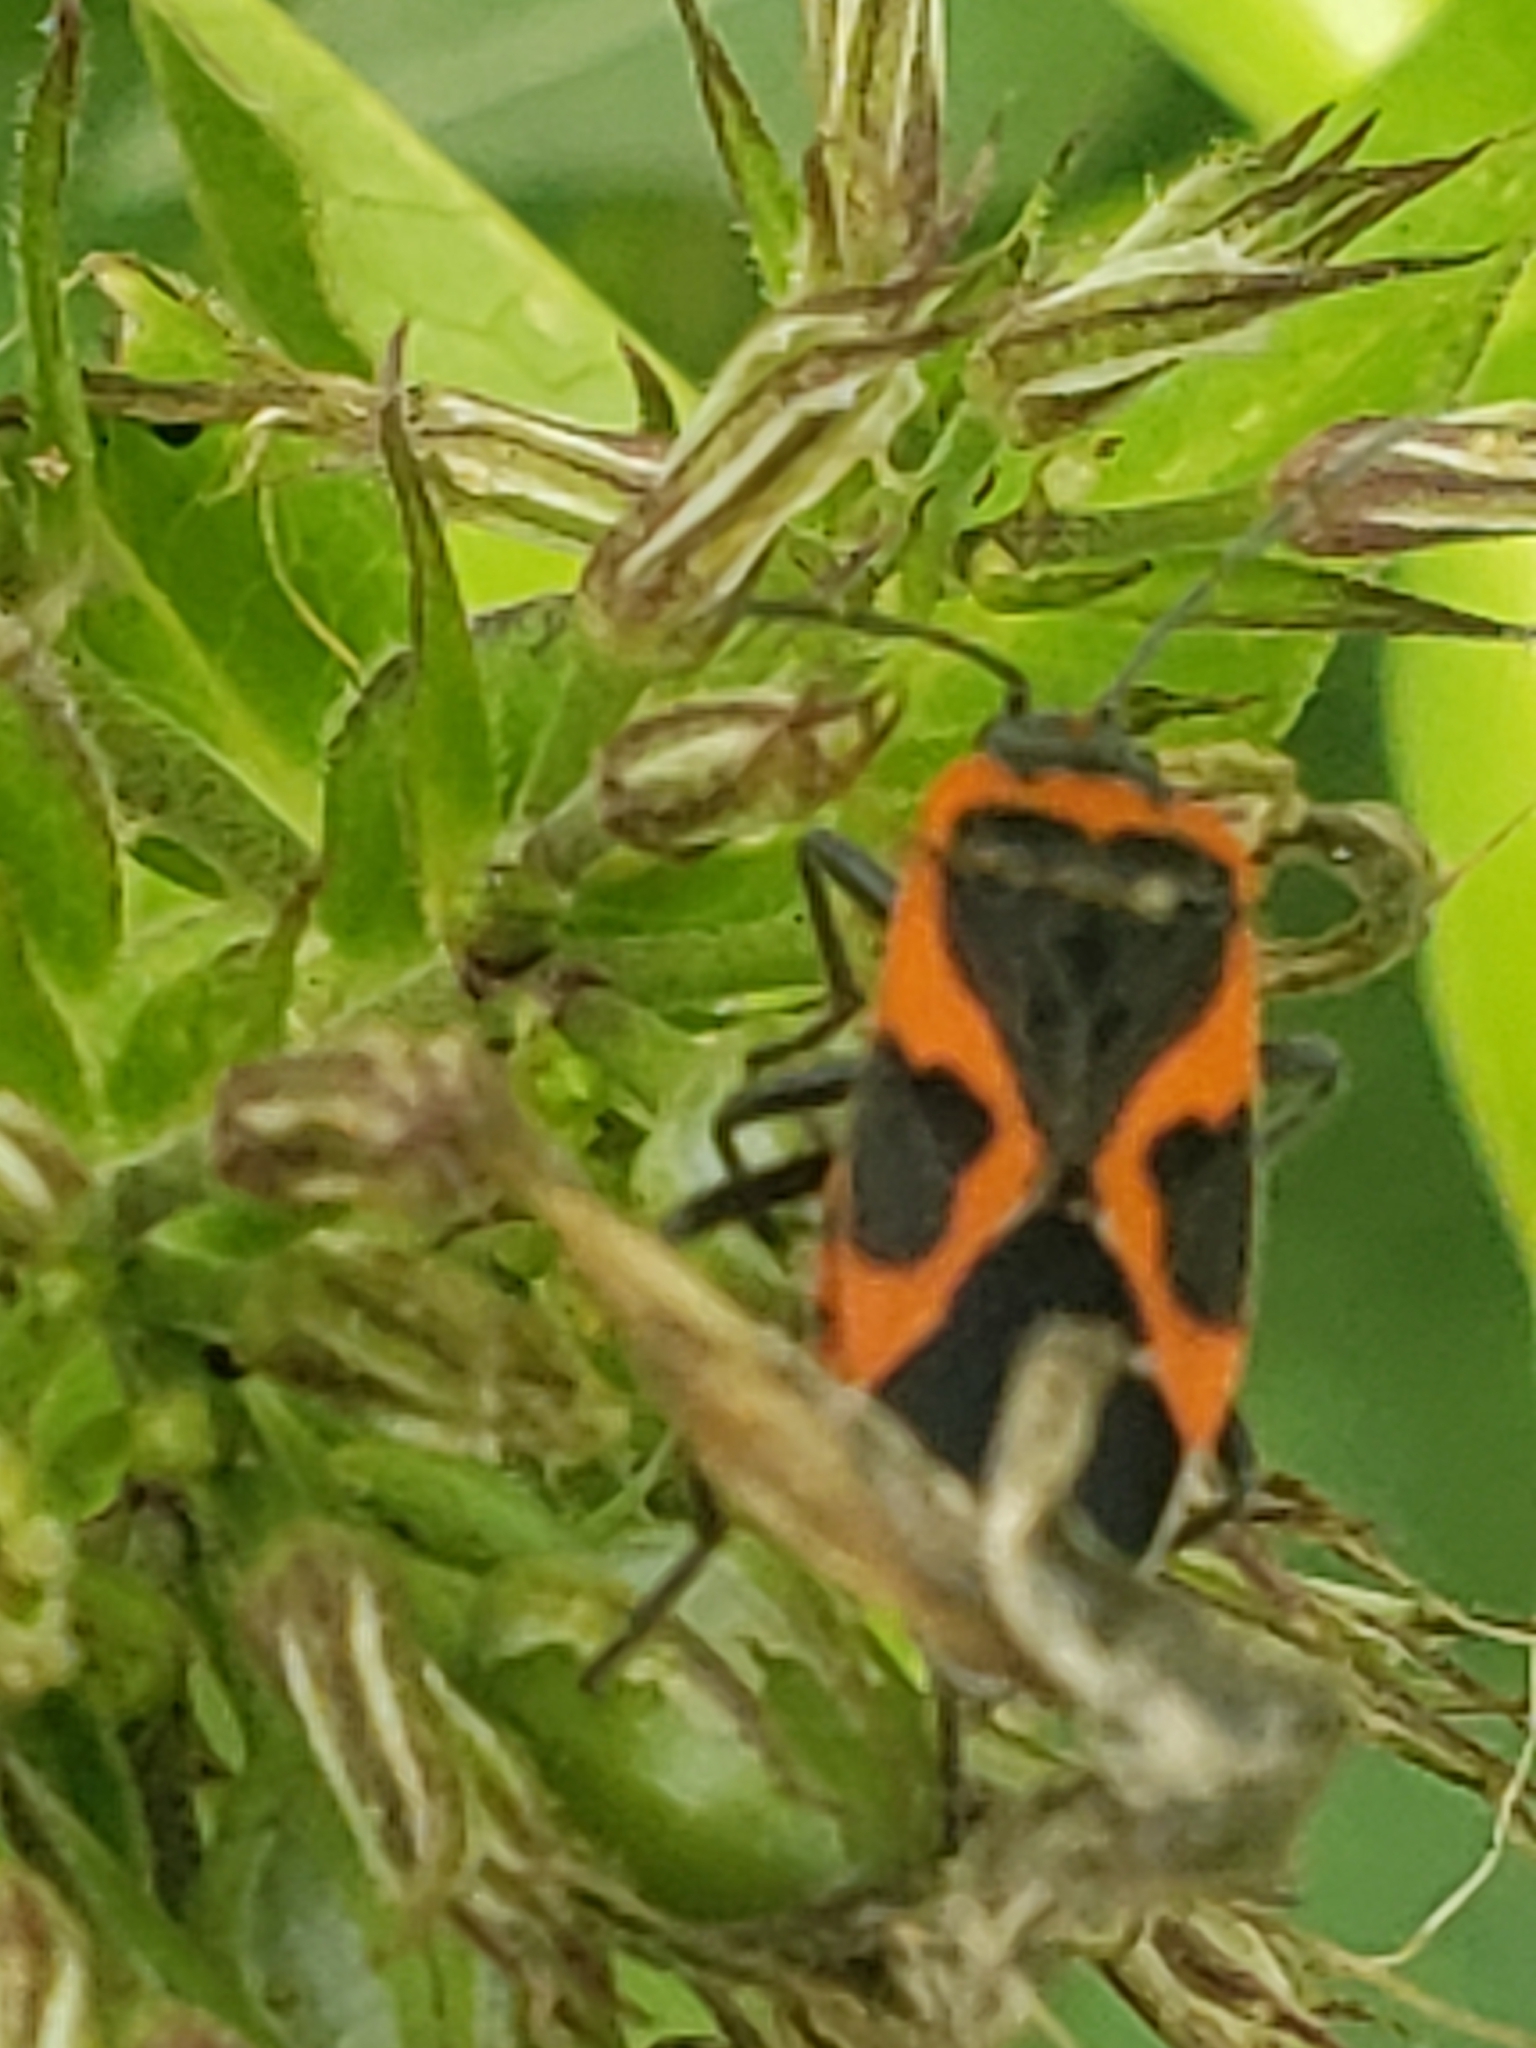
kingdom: Animalia
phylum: Arthropoda
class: Insecta
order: Hemiptera
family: Lygaeidae
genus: Lygaeus
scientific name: Lygaeus kalmii
